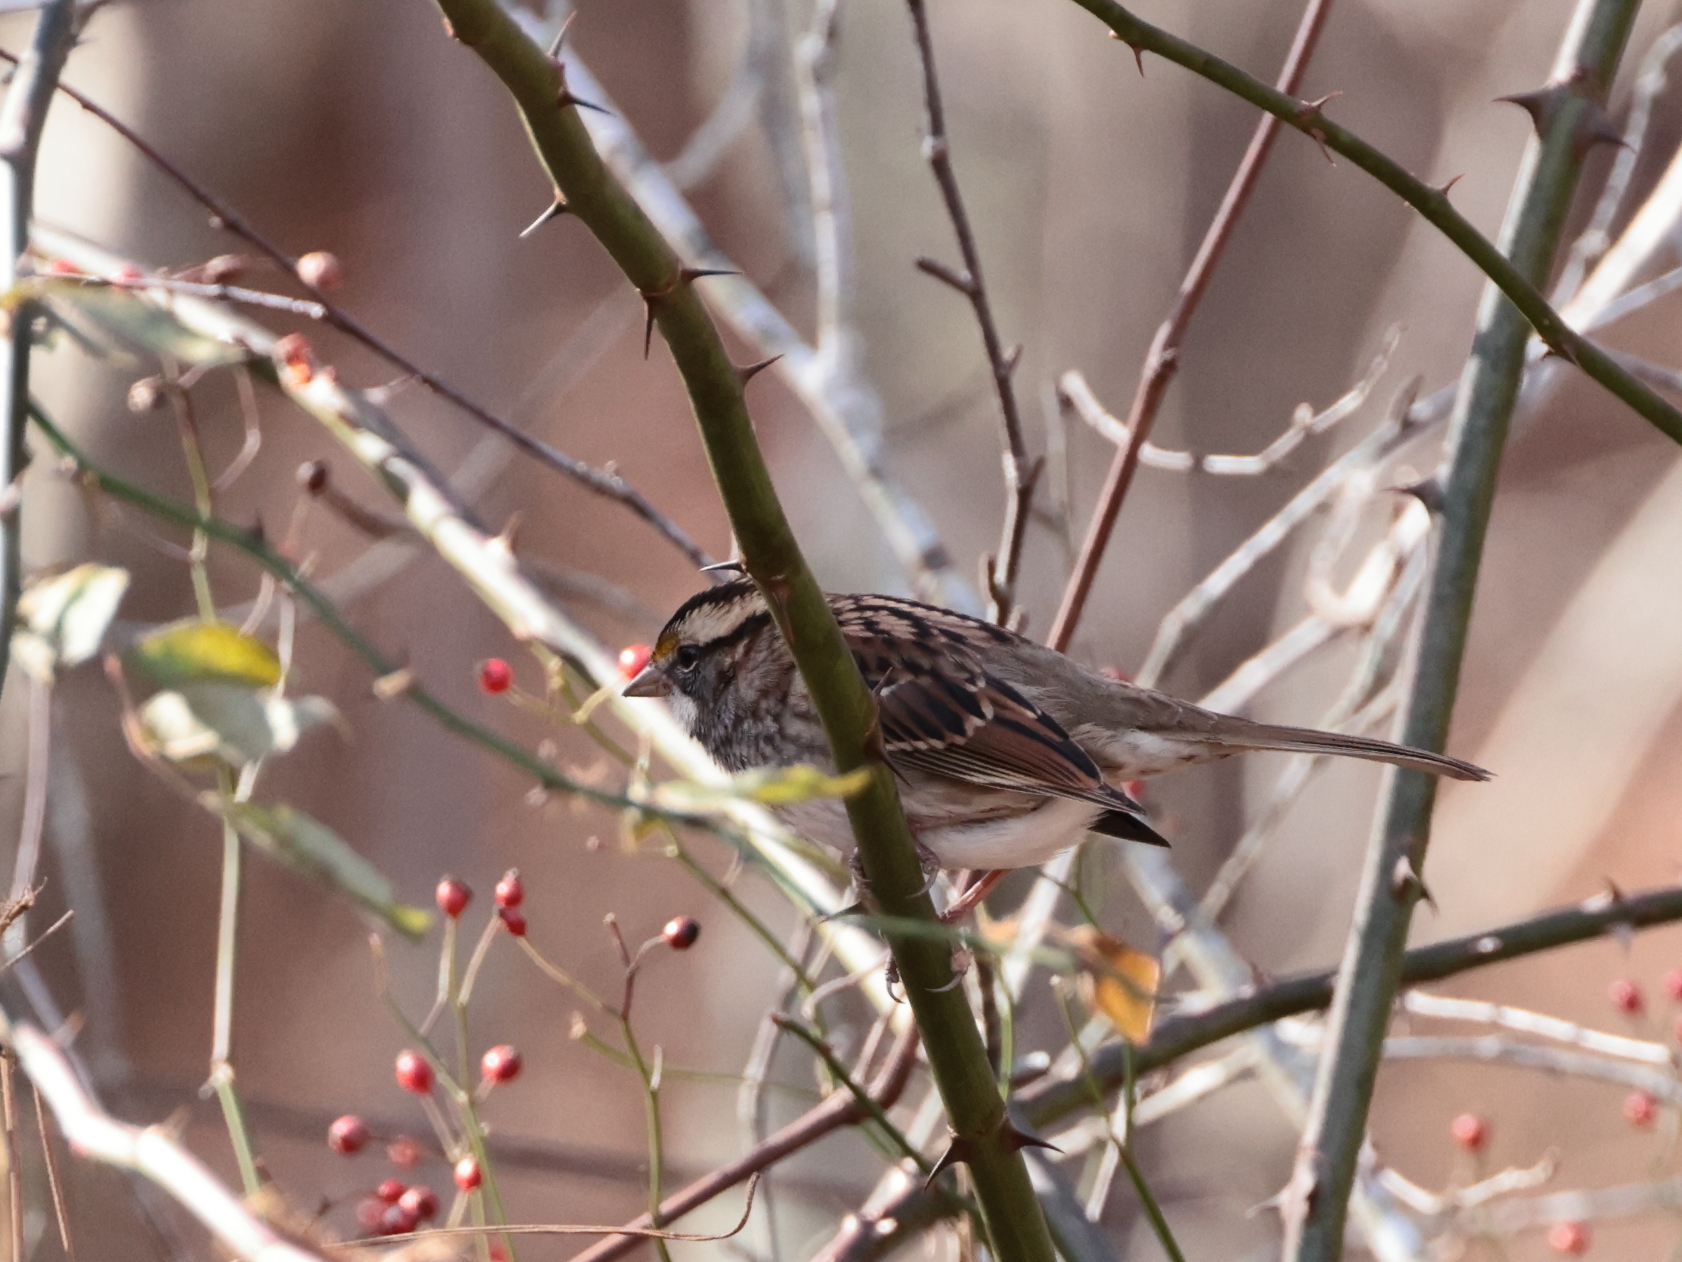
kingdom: Animalia
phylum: Chordata
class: Aves
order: Passeriformes
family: Passerellidae
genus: Zonotrichia
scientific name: Zonotrichia albicollis
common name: White-throated sparrow
